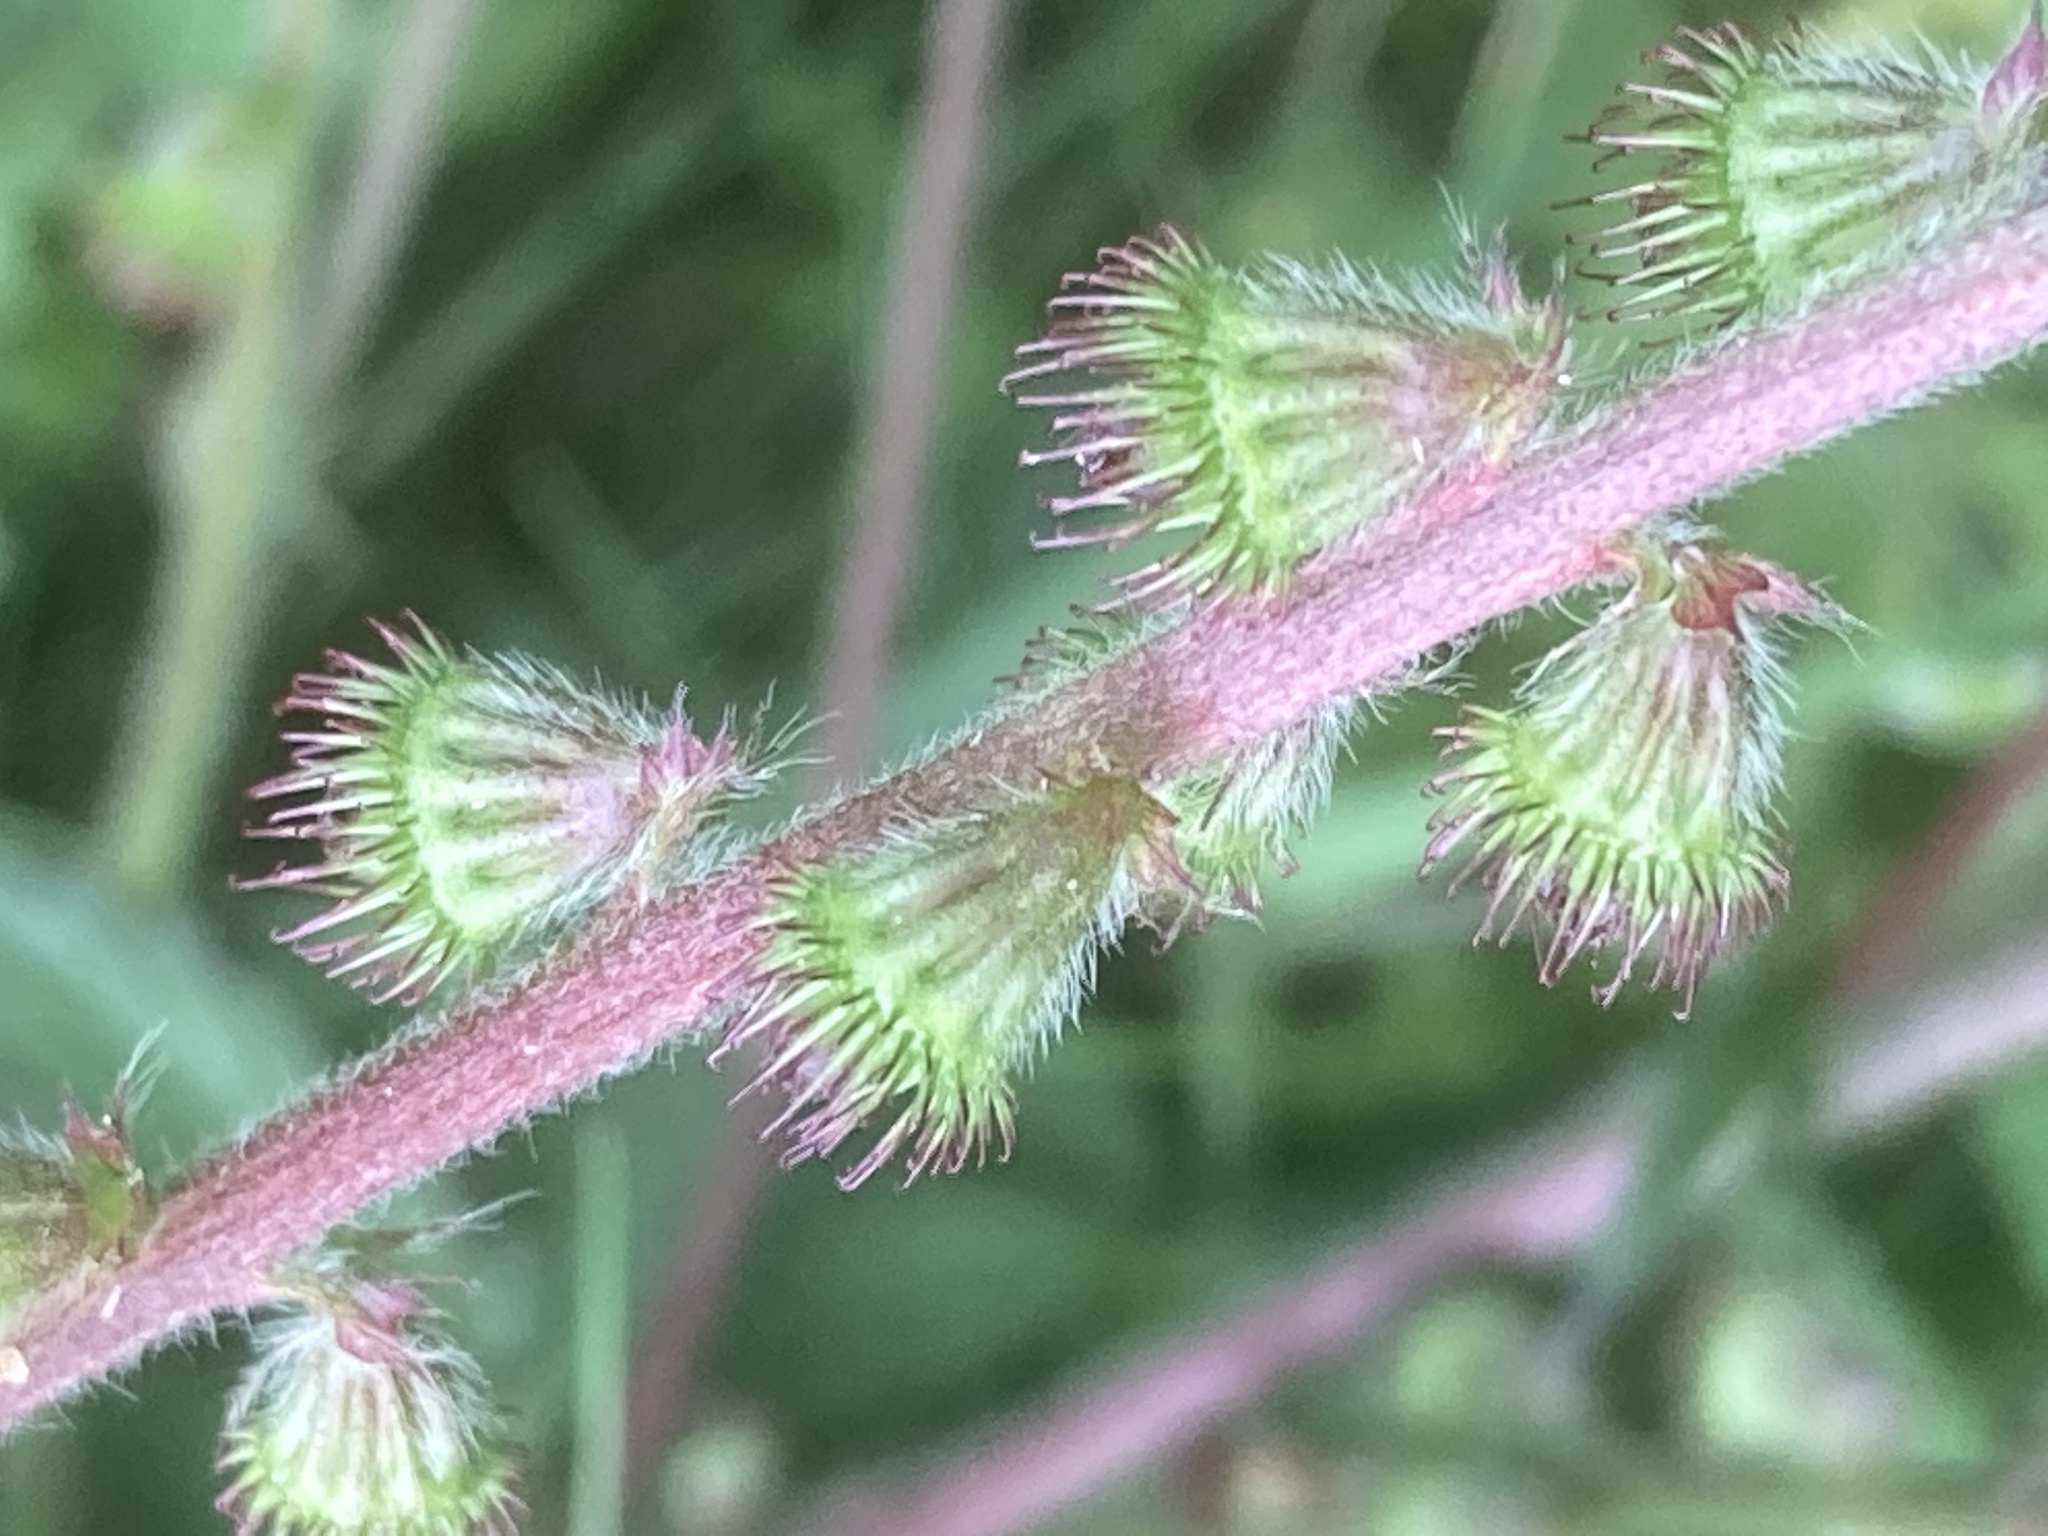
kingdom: Plantae
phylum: Tracheophyta
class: Magnoliopsida
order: Rosales
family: Rosaceae
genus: Agrimonia
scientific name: Agrimonia eupatoria
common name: Agrimony
